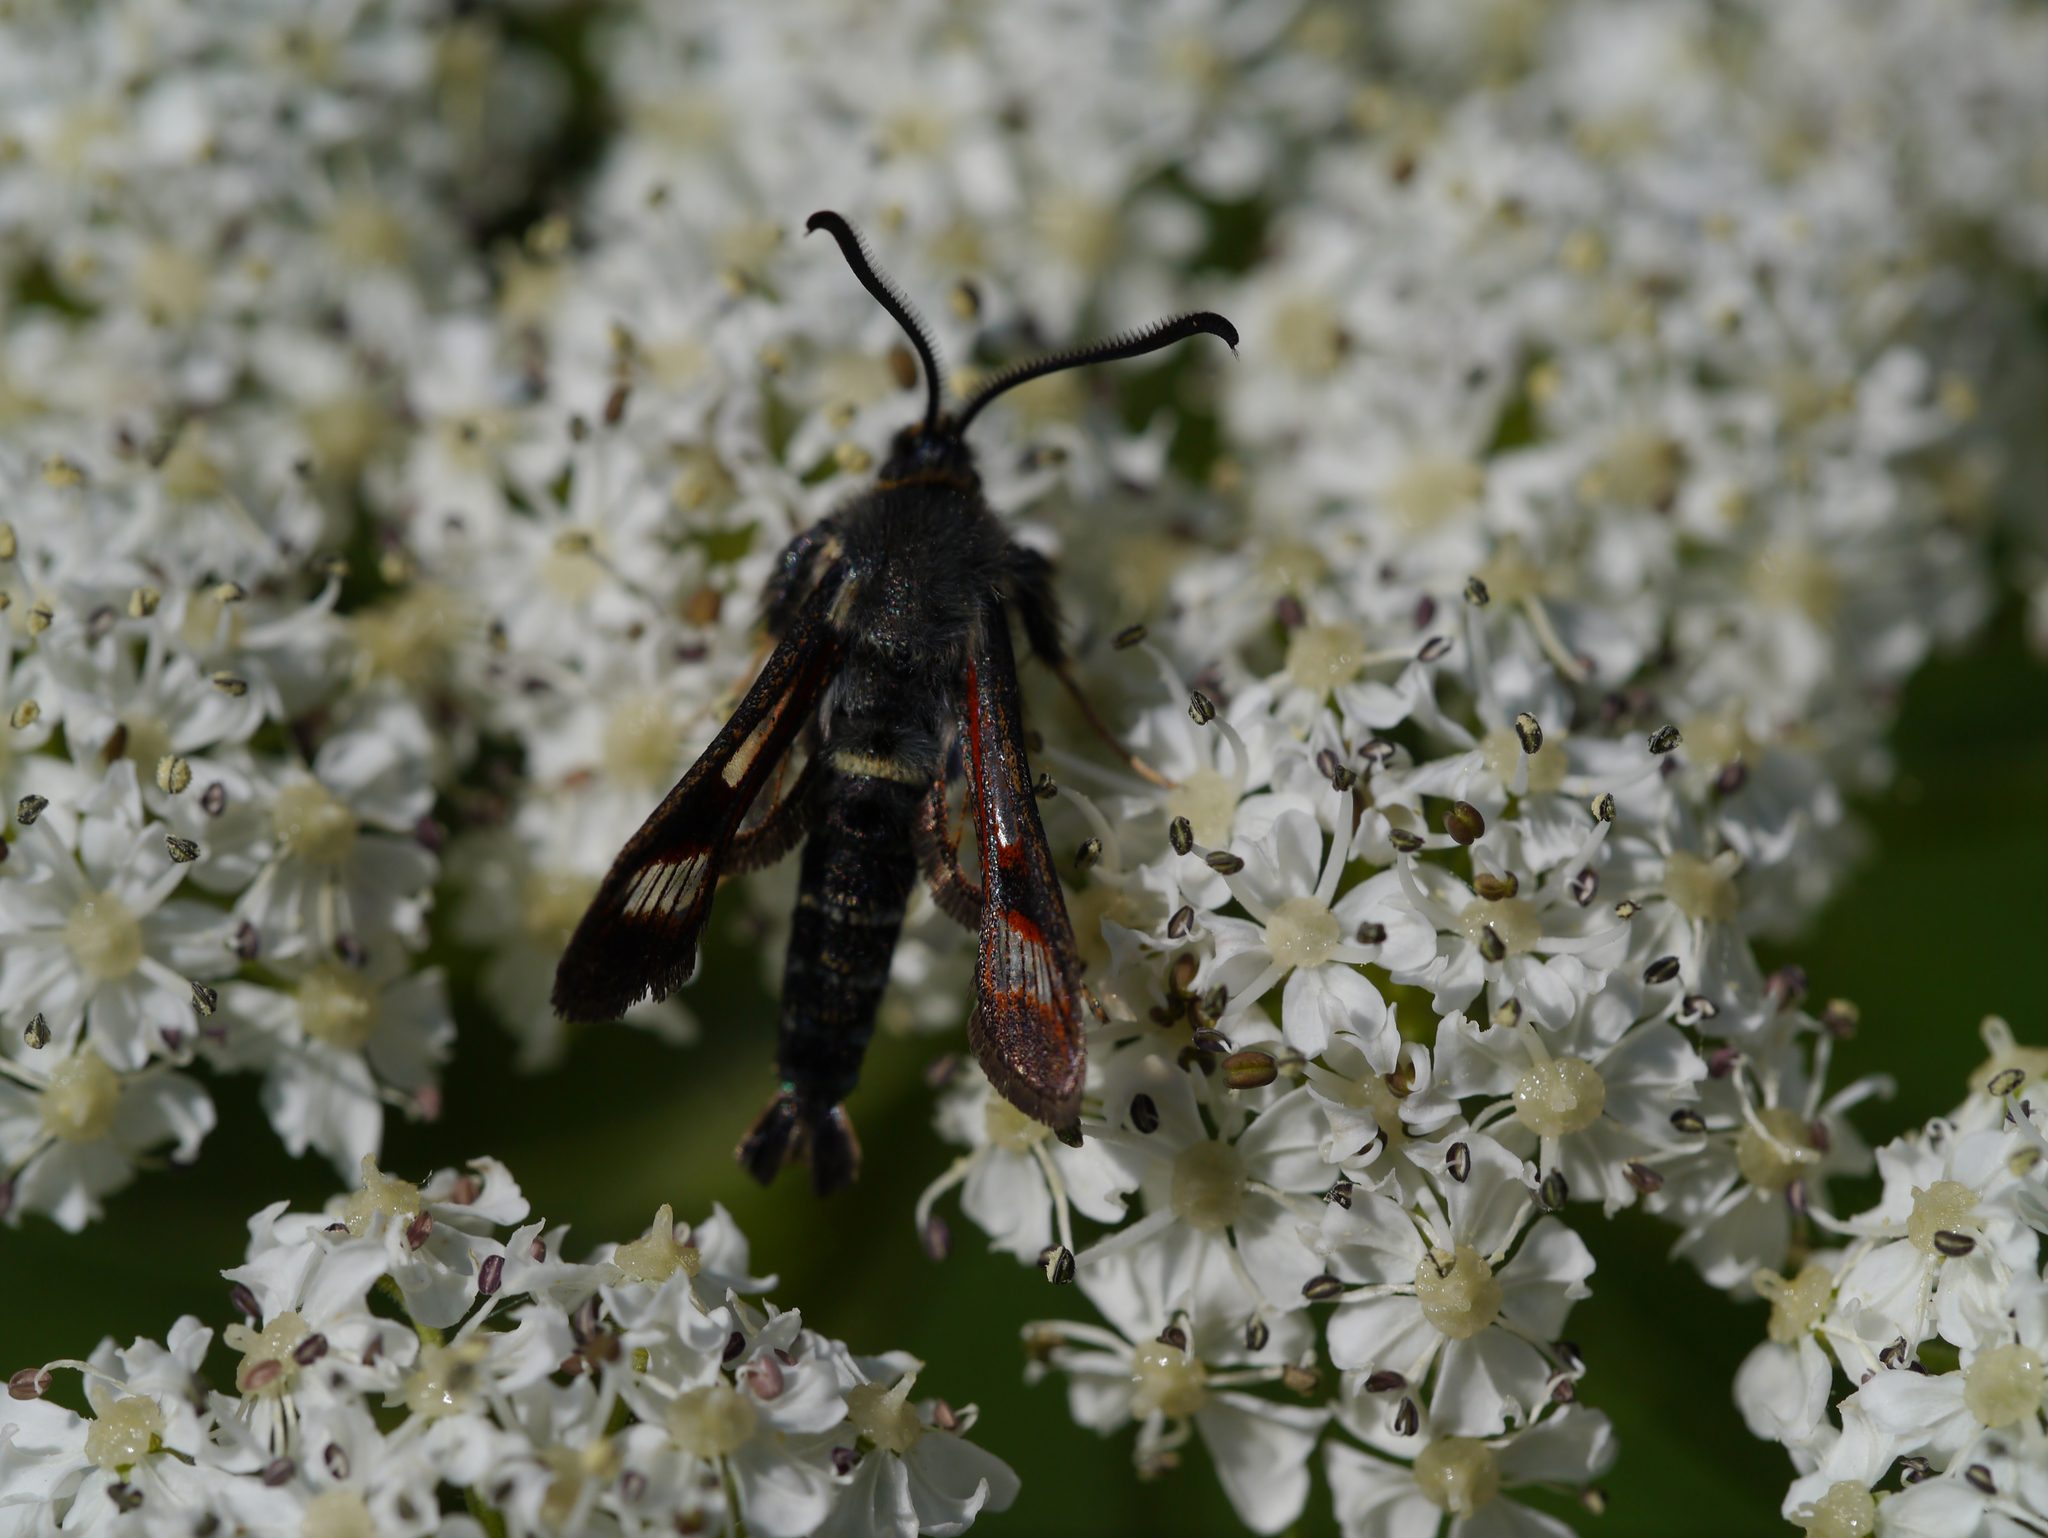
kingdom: Animalia
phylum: Arthropoda
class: Insecta
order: Lepidoptera
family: Sesiidae
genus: Albuna
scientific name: Albuna pyramidalis
